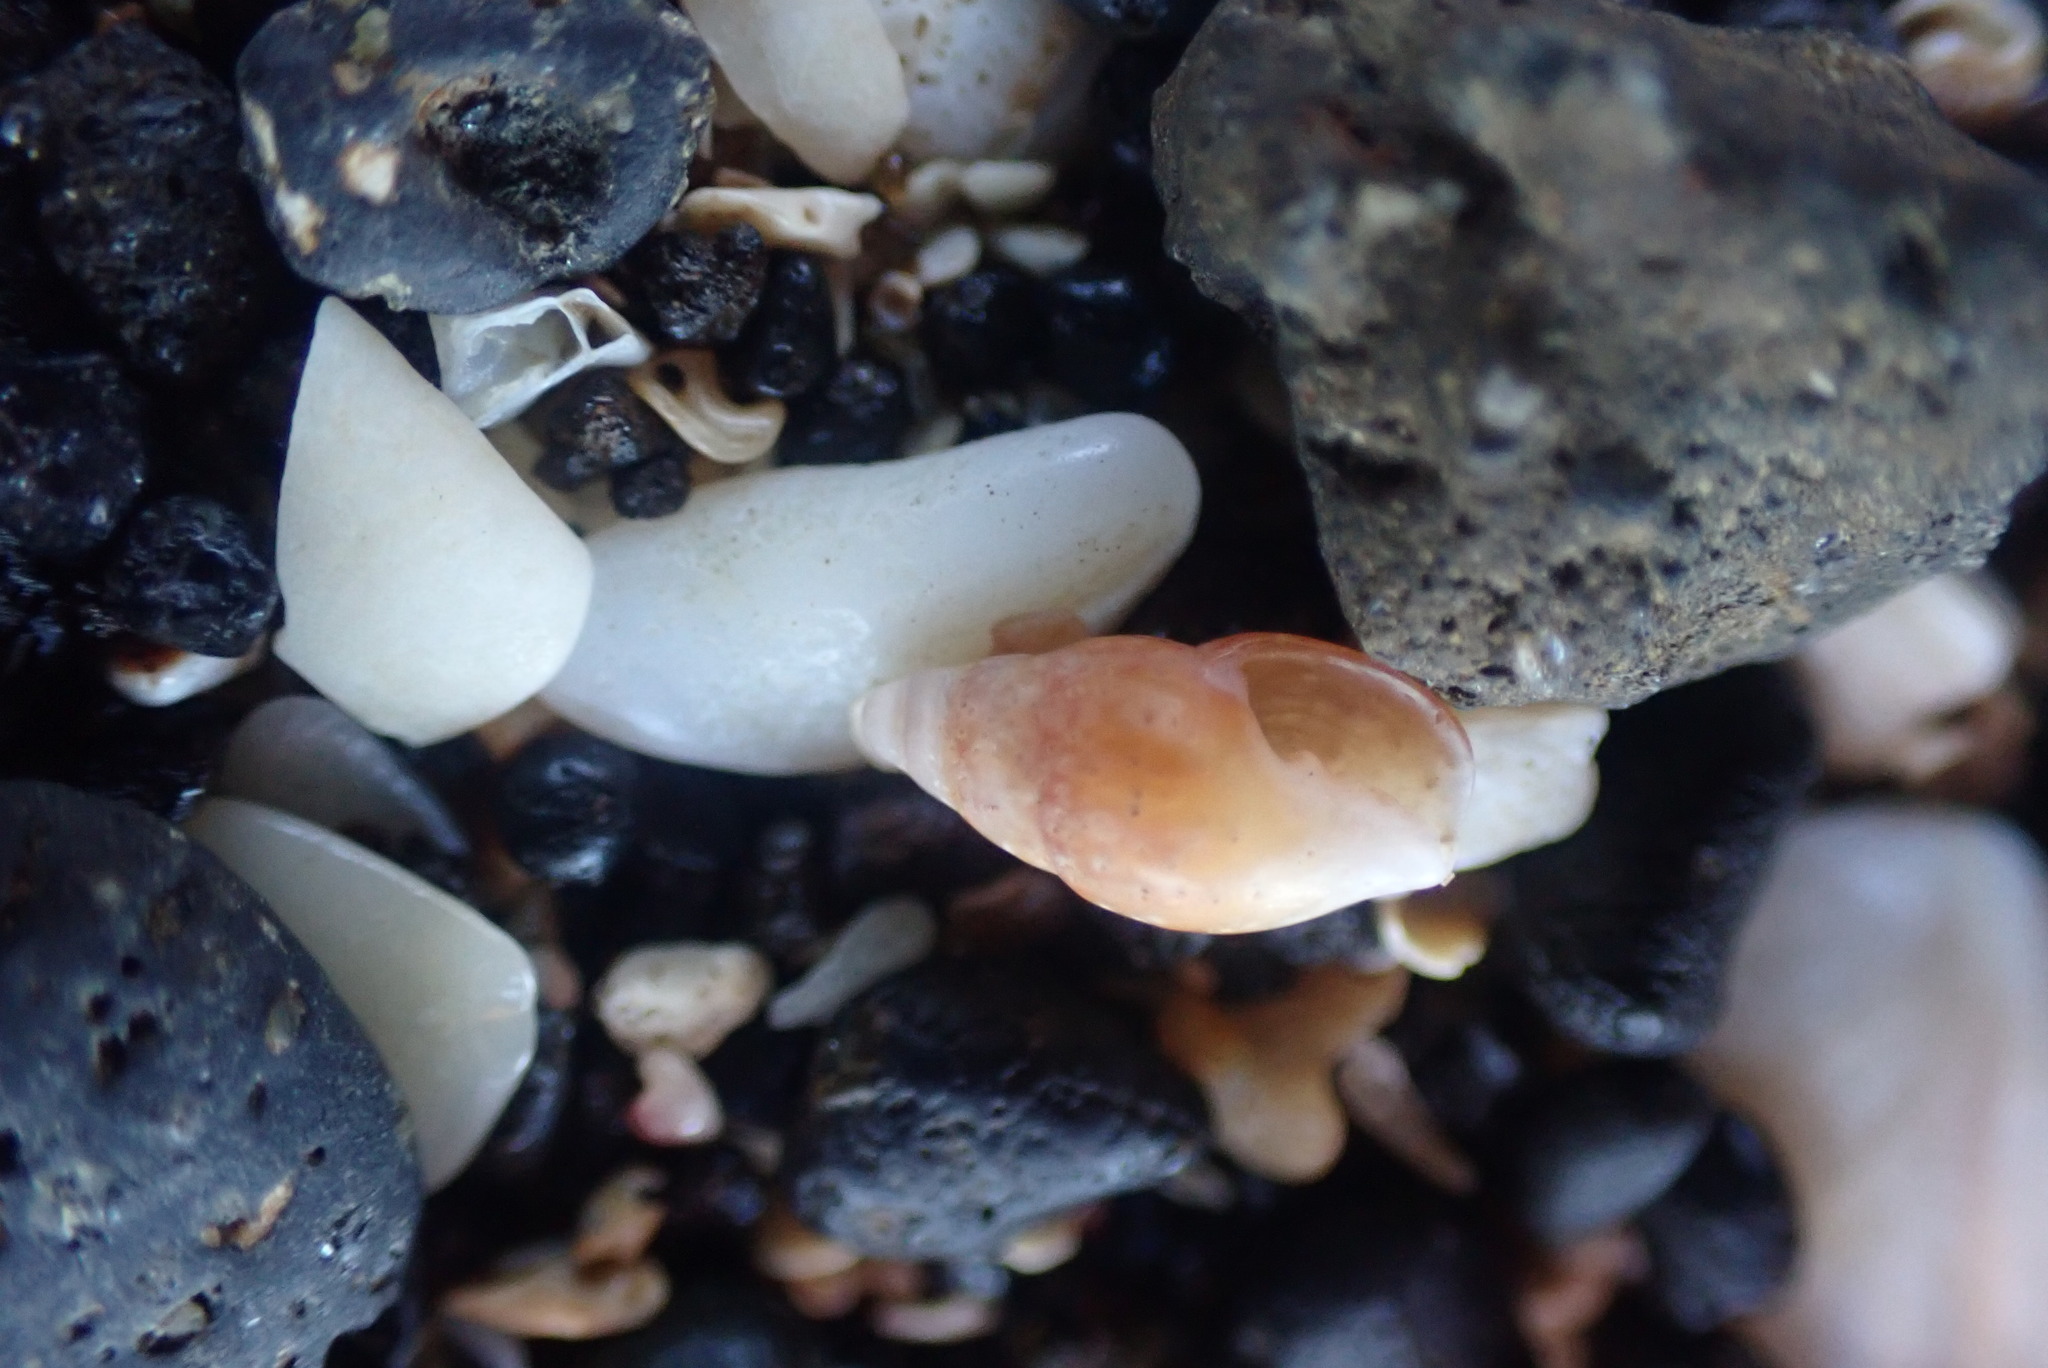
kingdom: Animalia
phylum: Mollusca
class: Gastropoda
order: Neogastropoda
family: Costellariidae
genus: Austromitra
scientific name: Austromitra rubiginosa
